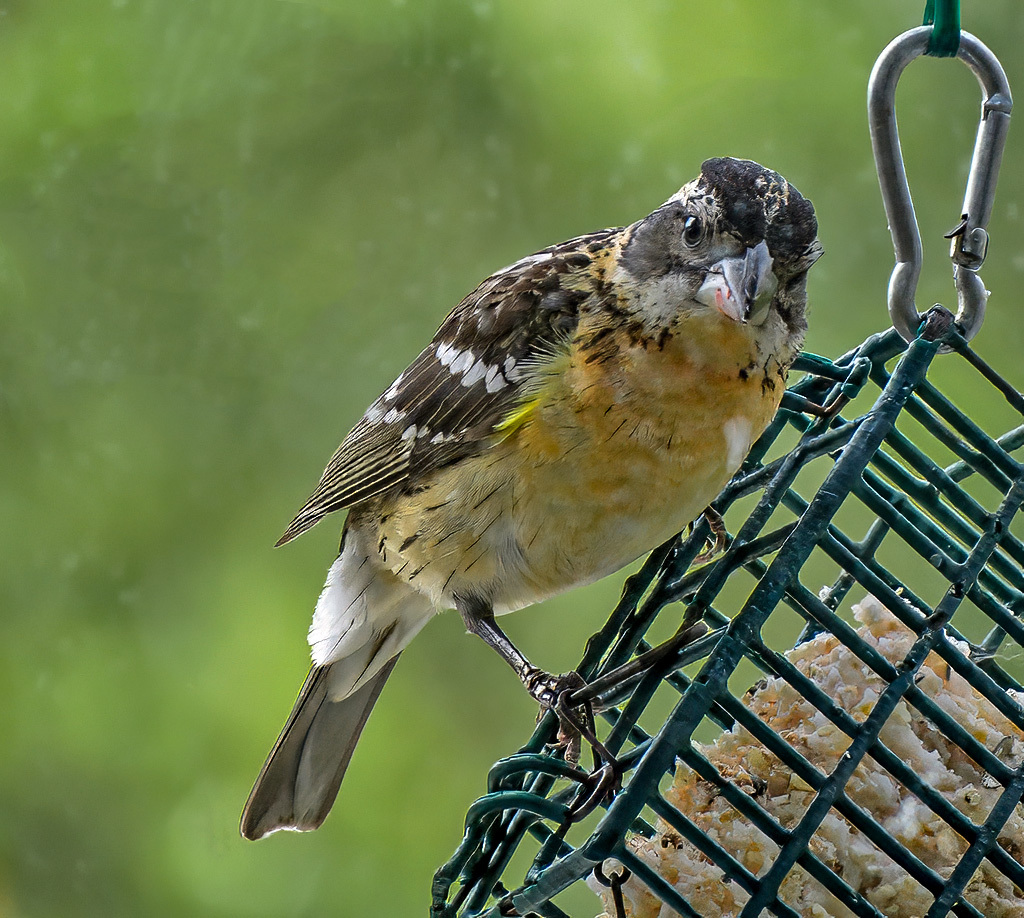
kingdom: Animalia
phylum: Chordata
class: Aves
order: Passeriformes
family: Cardinalidae
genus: Pheucticus
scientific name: Pheucticus melanocephalus
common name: Black-headed grosbeak
